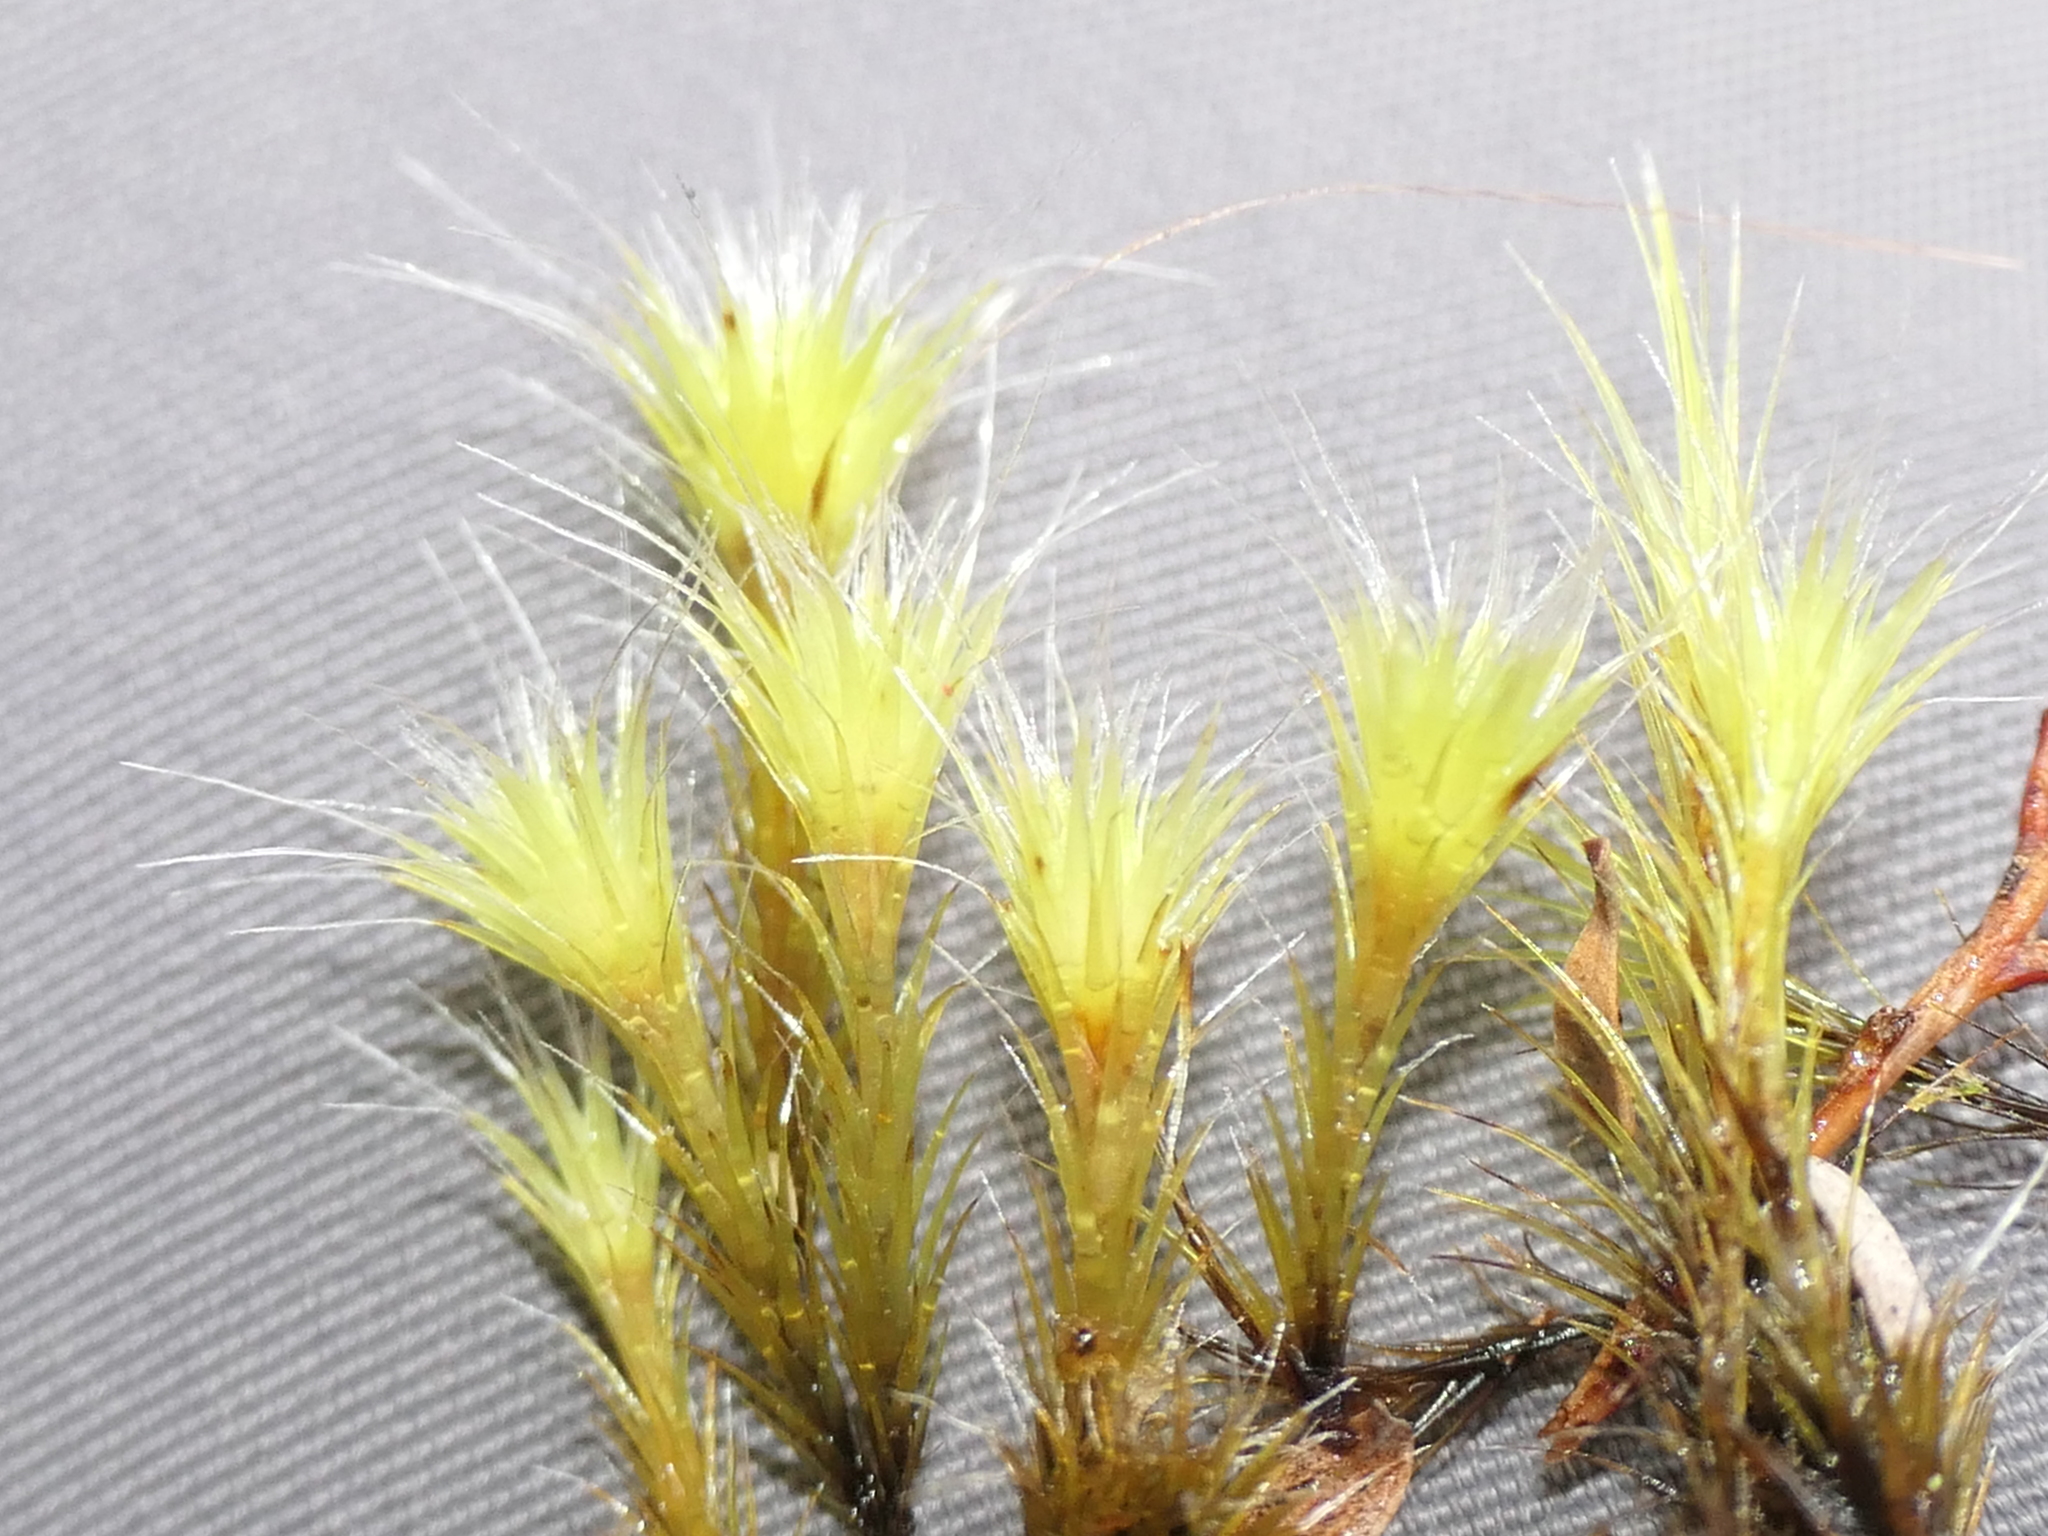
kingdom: Plantae
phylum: Bryophyta
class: Bryopsida
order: Dicranales
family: Leucobryaceae
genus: Campylopus
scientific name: Campylopus introflexus
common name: Heath star moss
